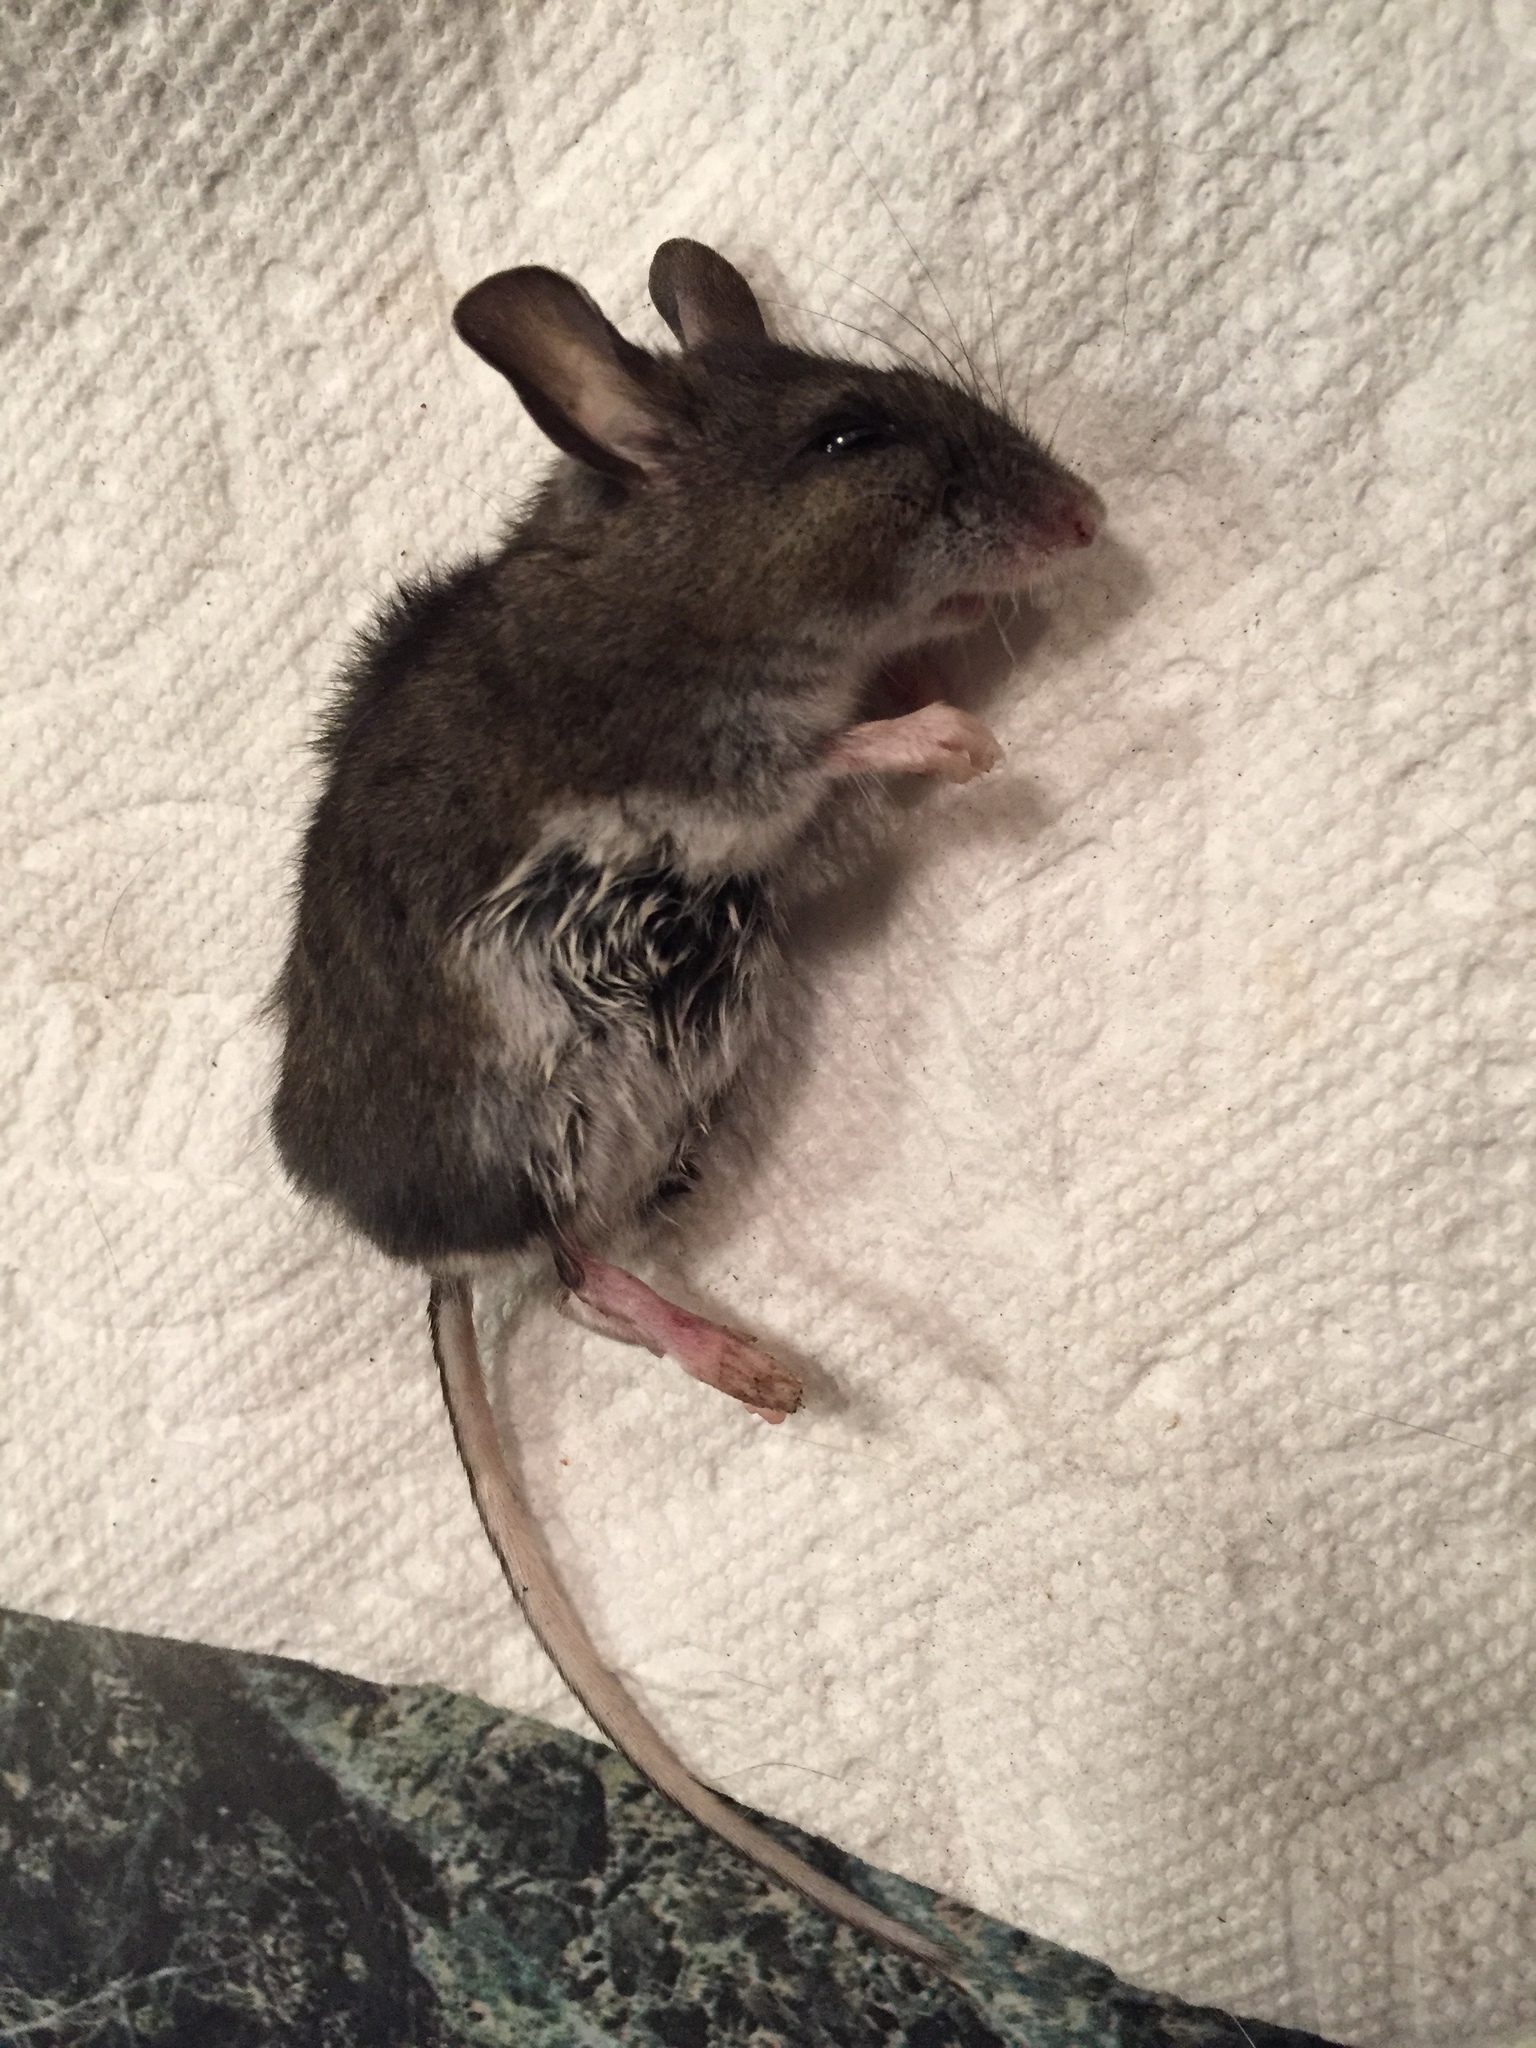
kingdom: Animalia
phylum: Chordata
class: Mammalia
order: Rodentia
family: Cricetidae
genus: Peromyscus
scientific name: Peromyscus maniculatus
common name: Deer mouse
